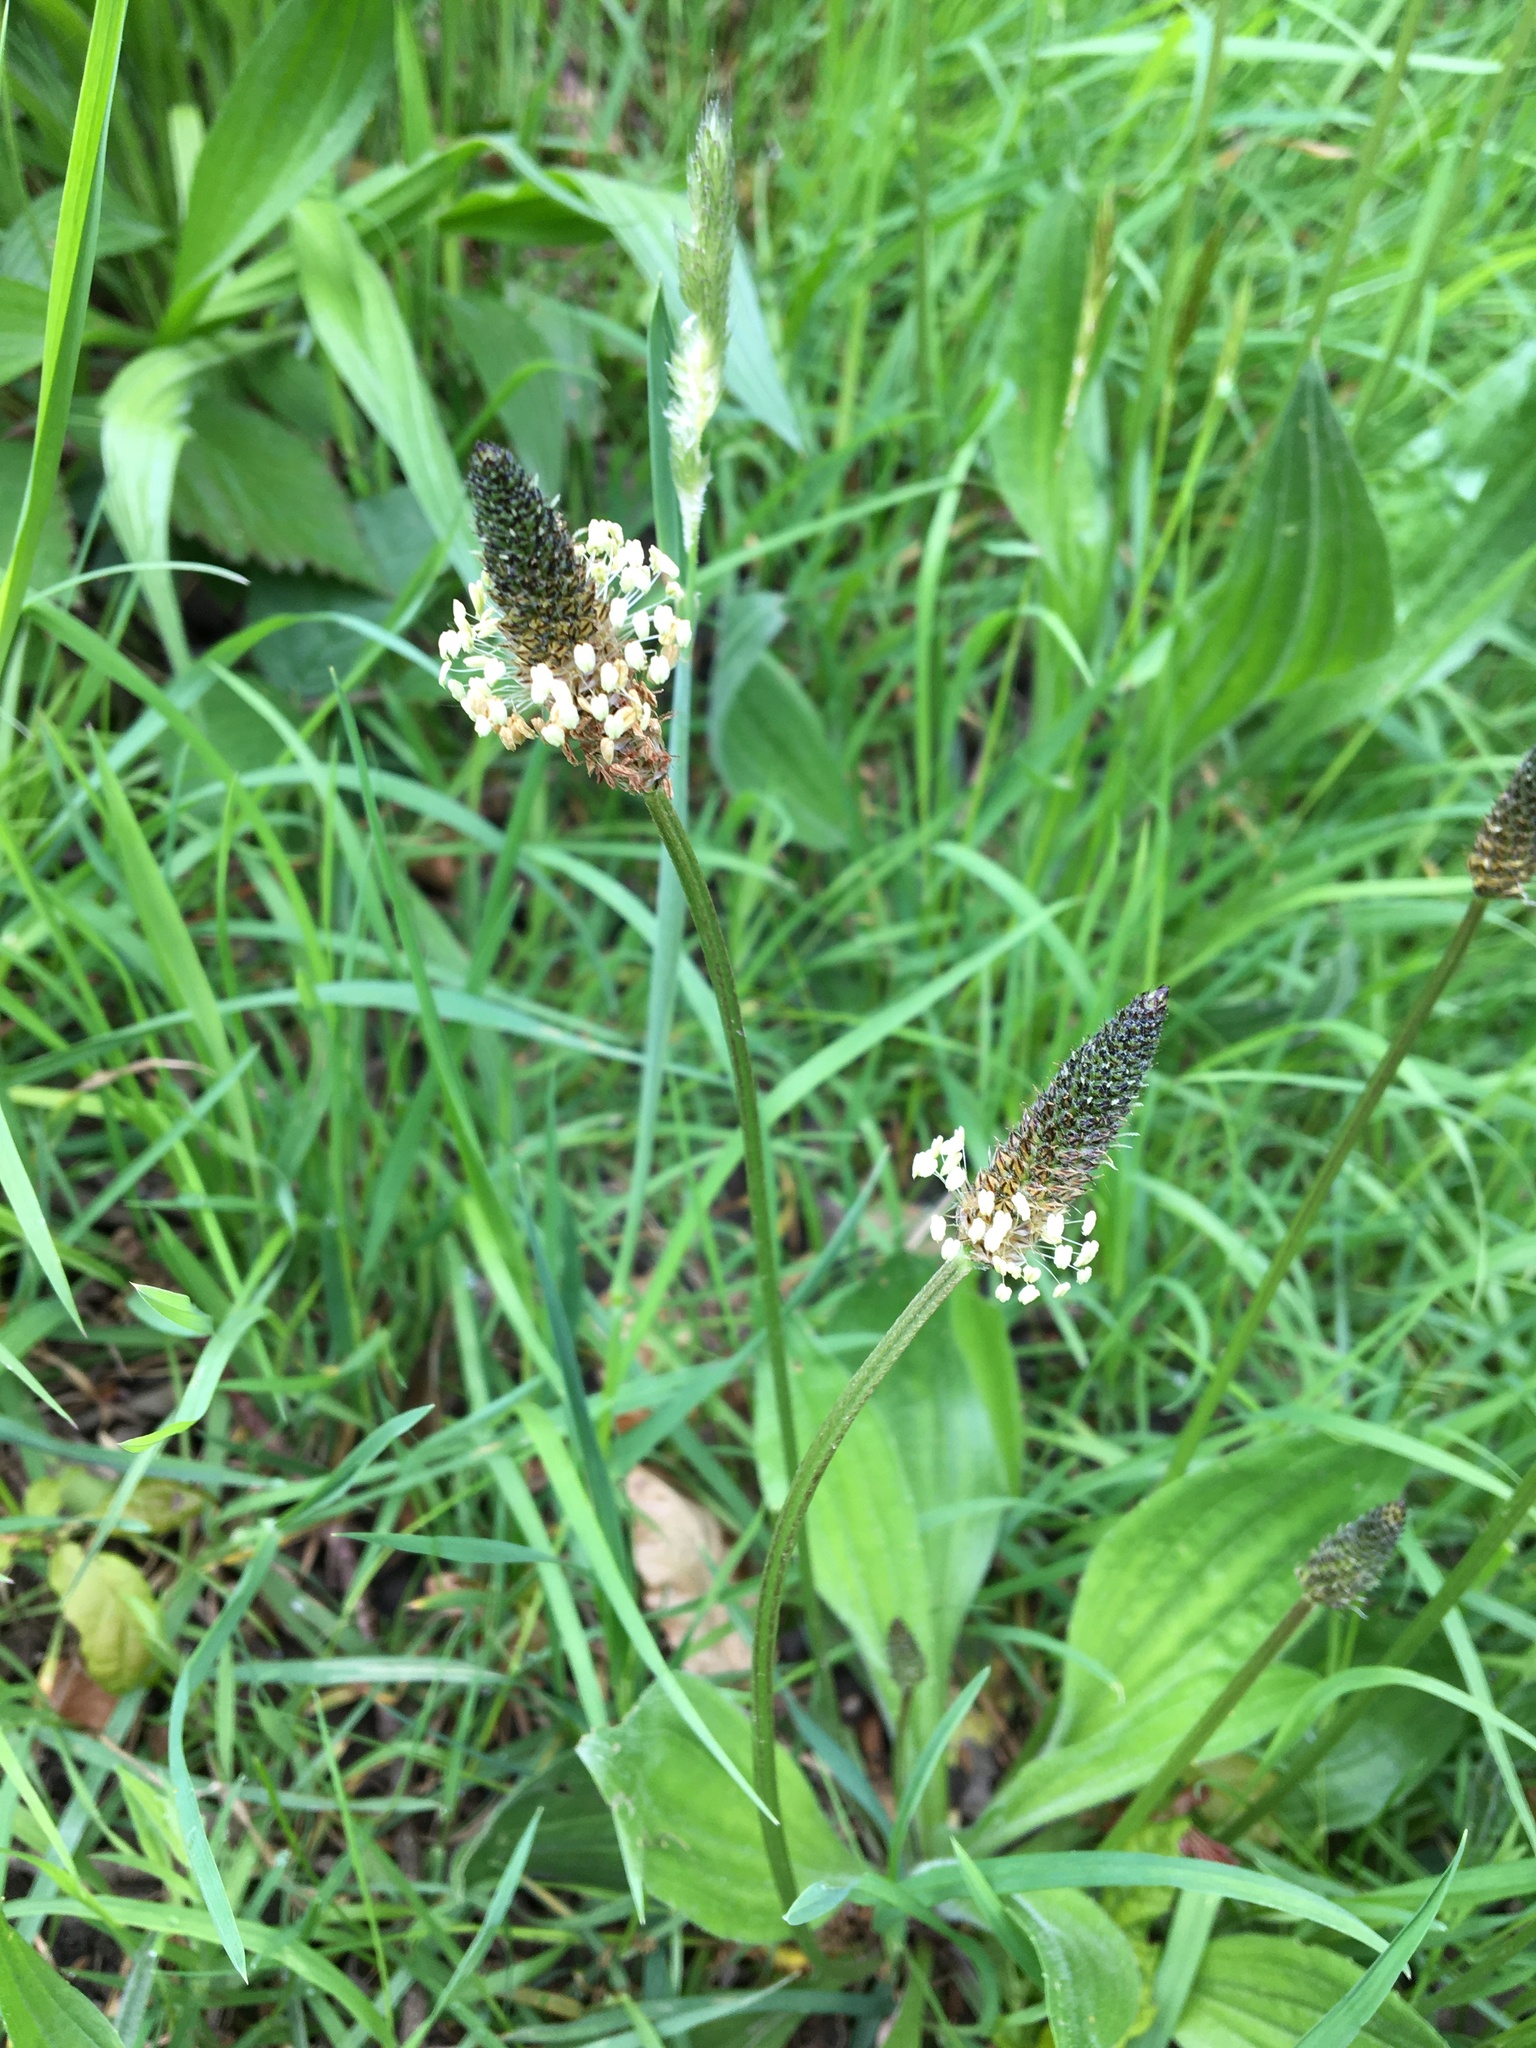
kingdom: Plantae
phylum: Tracheophyta
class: Magnoliopsida
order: Lamiales
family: Plantaginaceae
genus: Plantago
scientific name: Plantago lanceolata
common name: Ribwort plantain
